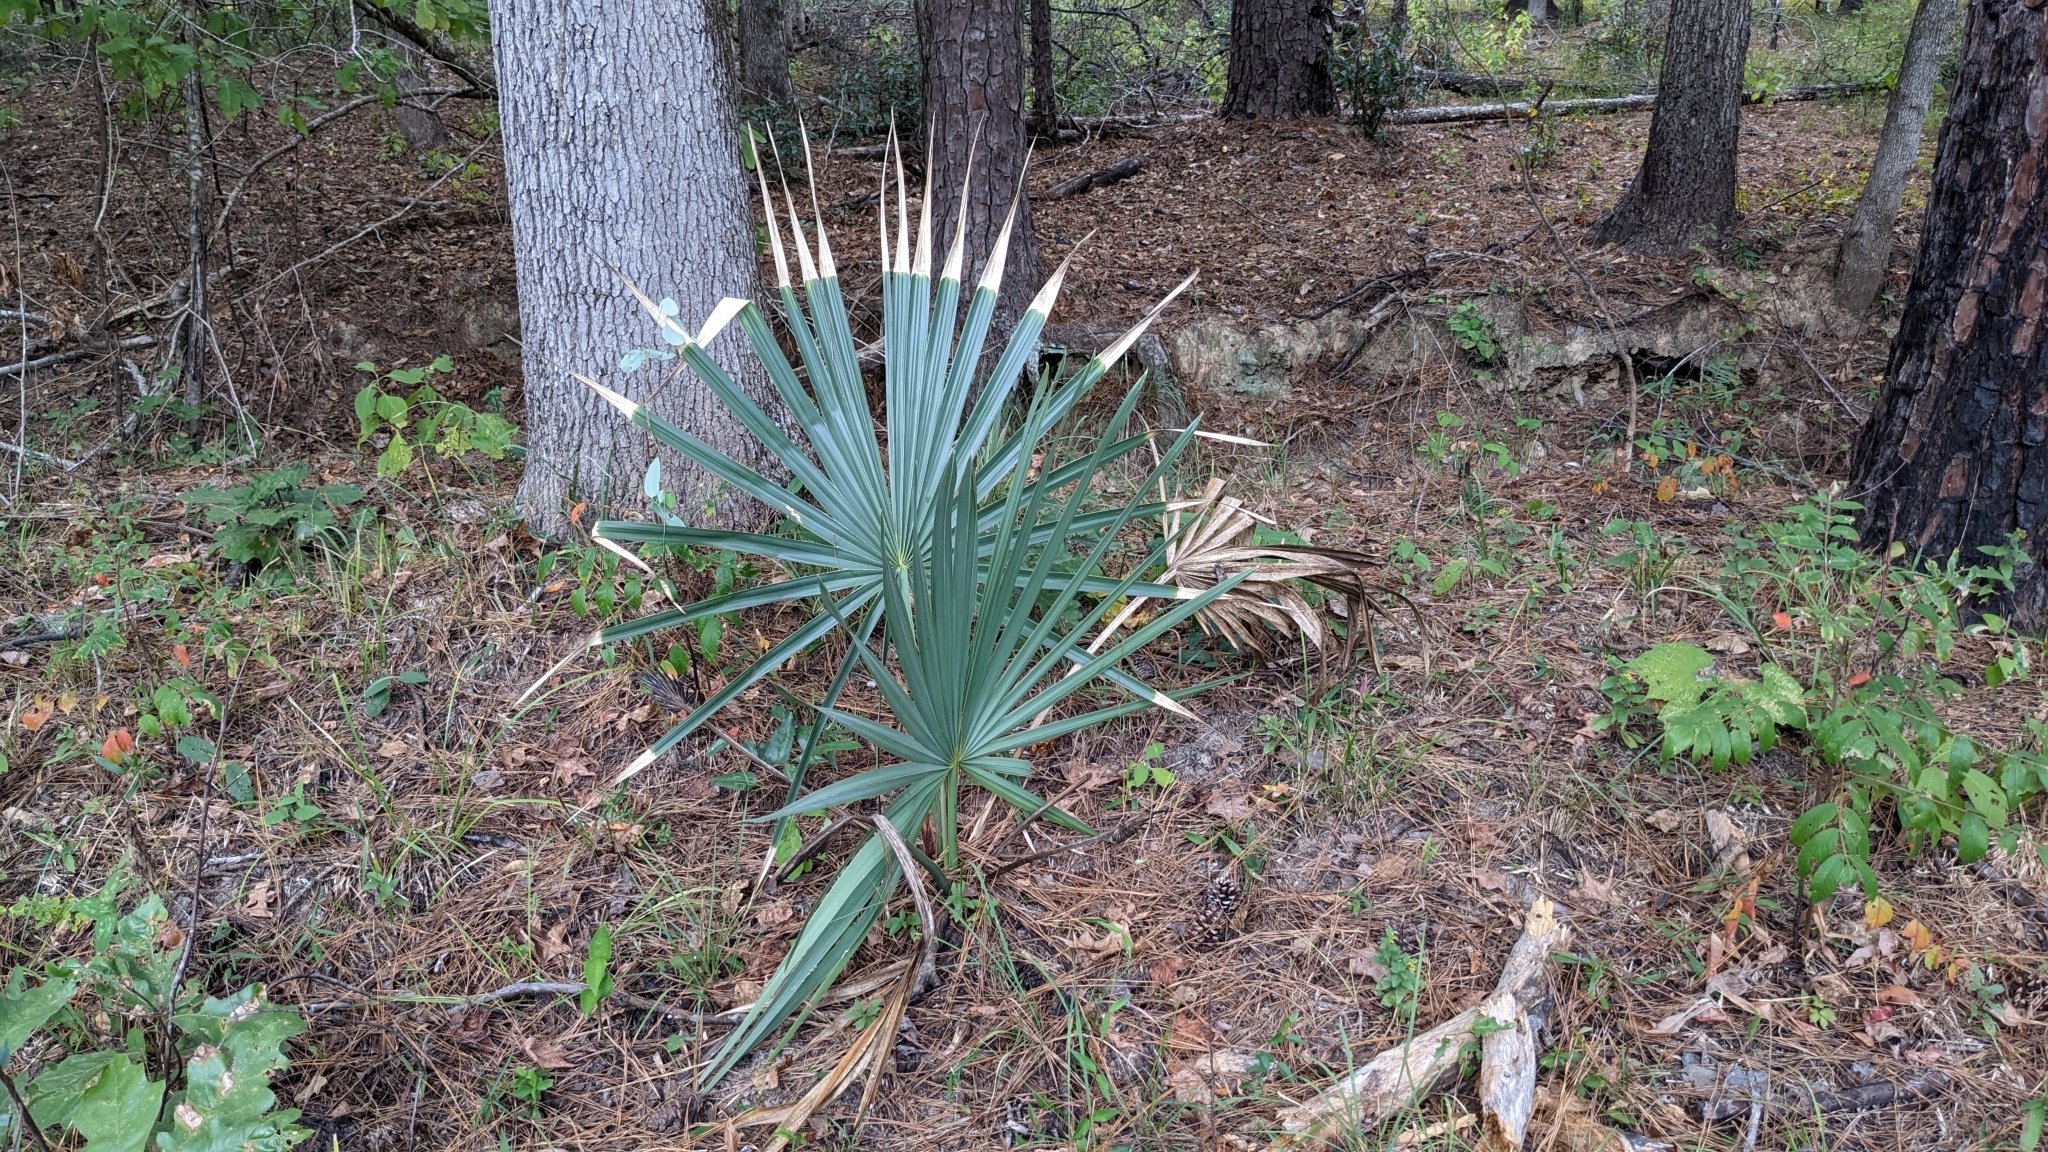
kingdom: Plantae
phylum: Tracheophyta
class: Liliopsida
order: Arecales
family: Arecaceae
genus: Sabal
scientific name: Sabal minor
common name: Dwarf palmetto
